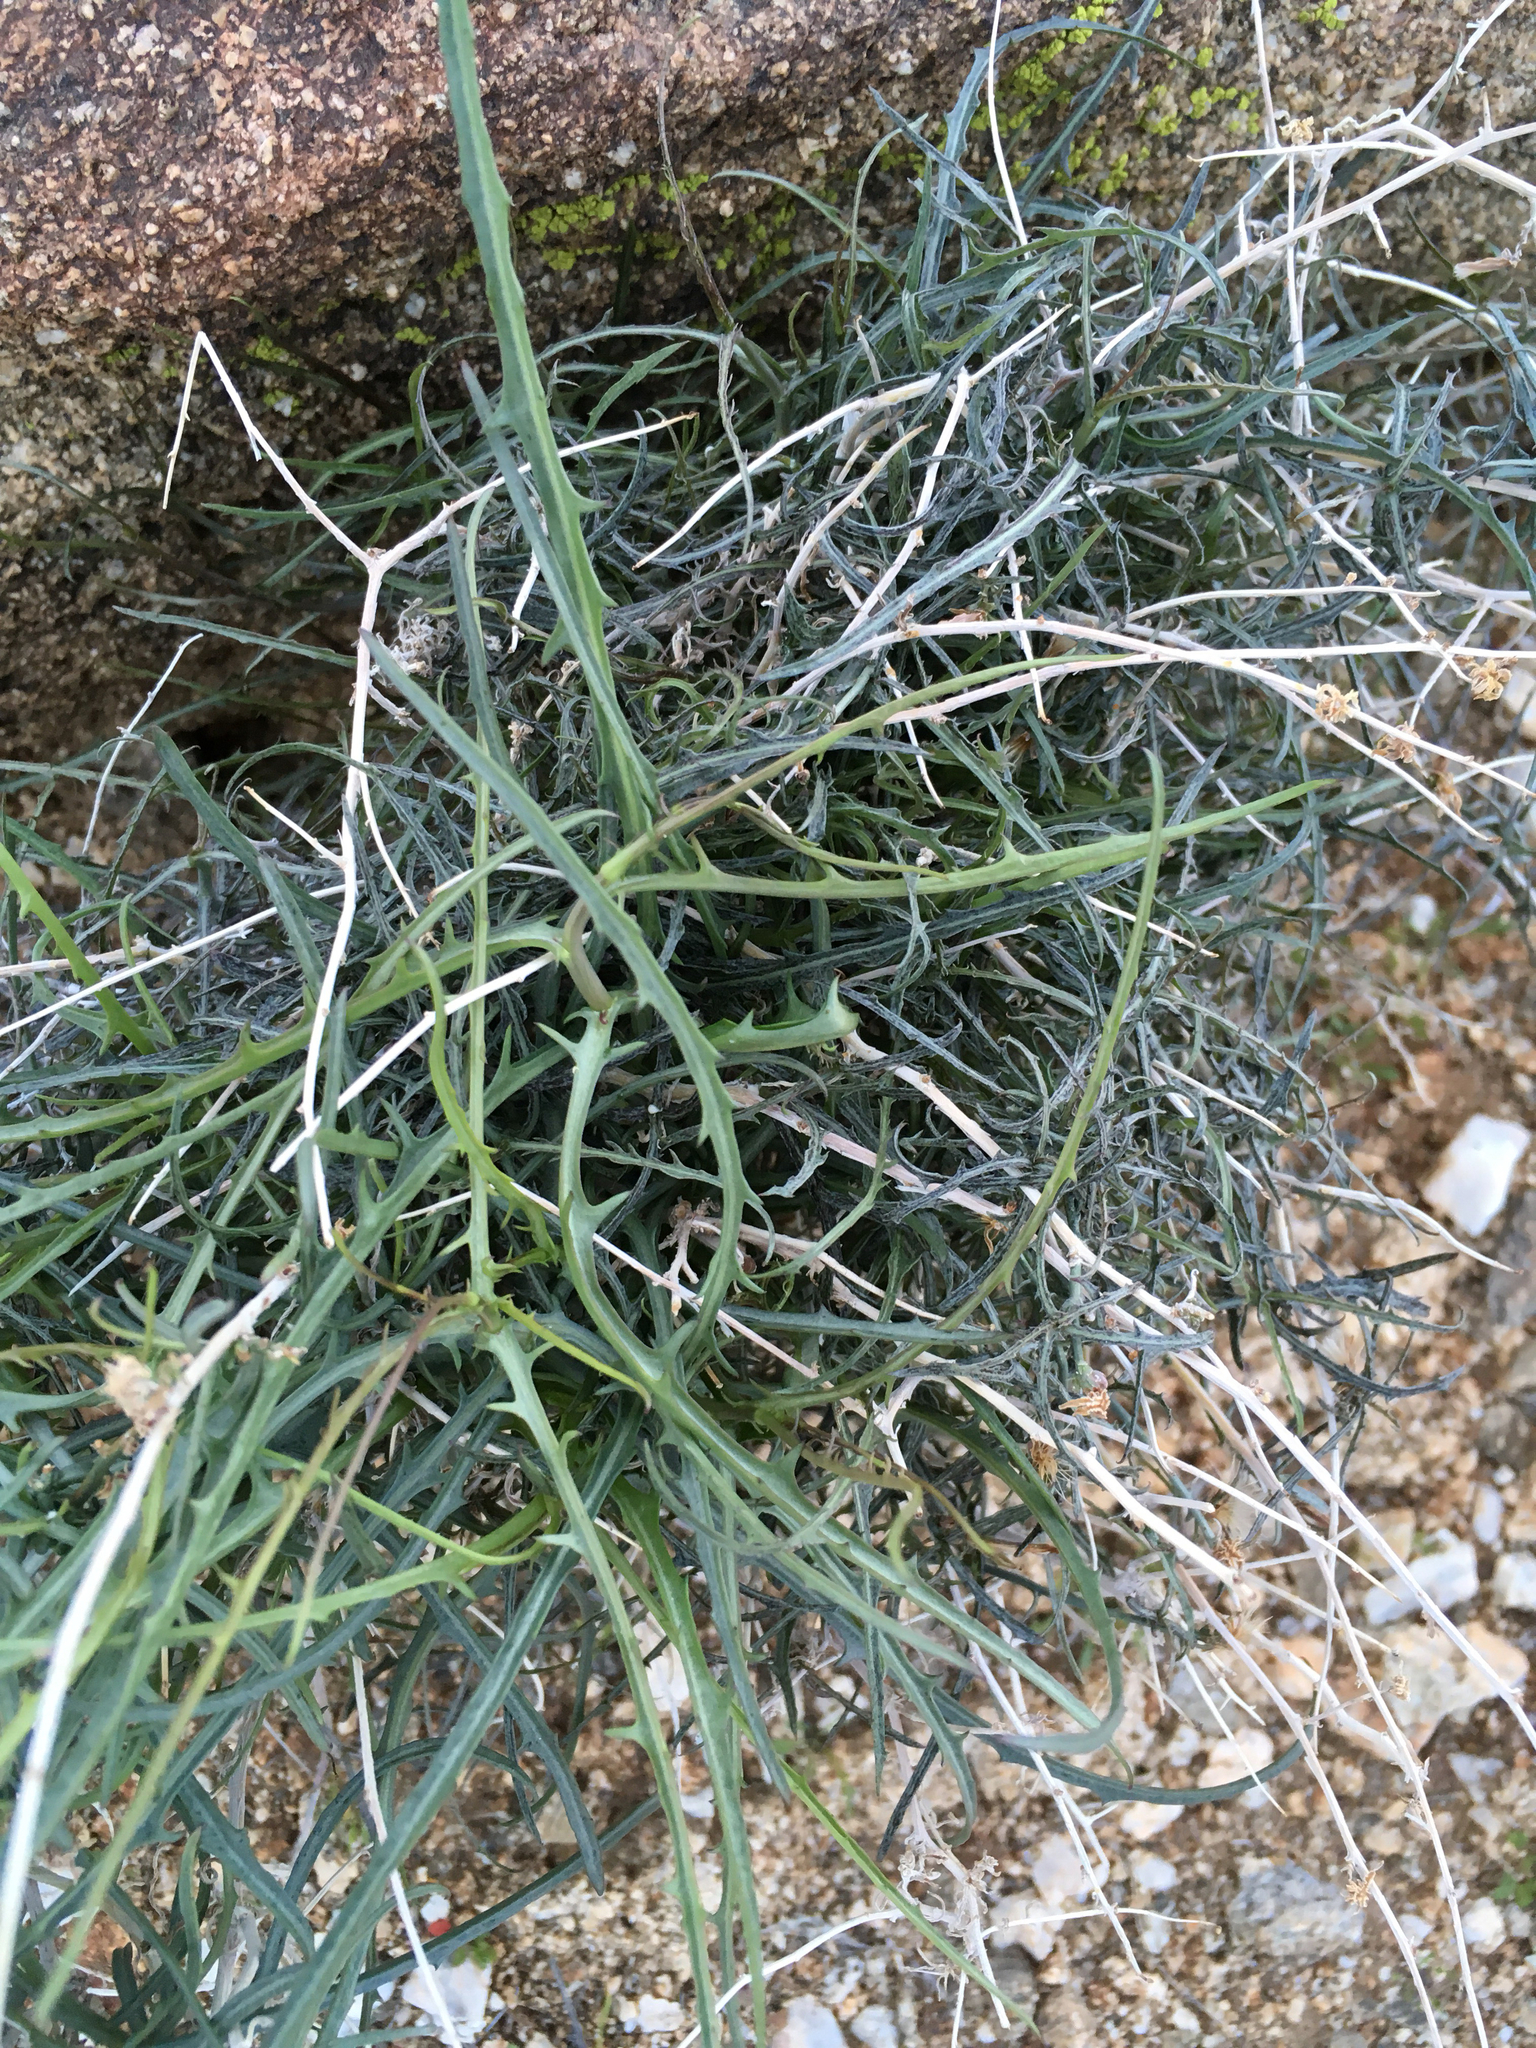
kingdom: Plantae
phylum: Tracheophyta
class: Magnoliopsida
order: Asterales
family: Asteraceae
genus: Stephanomeria
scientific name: Stephanomeria pauciflora
